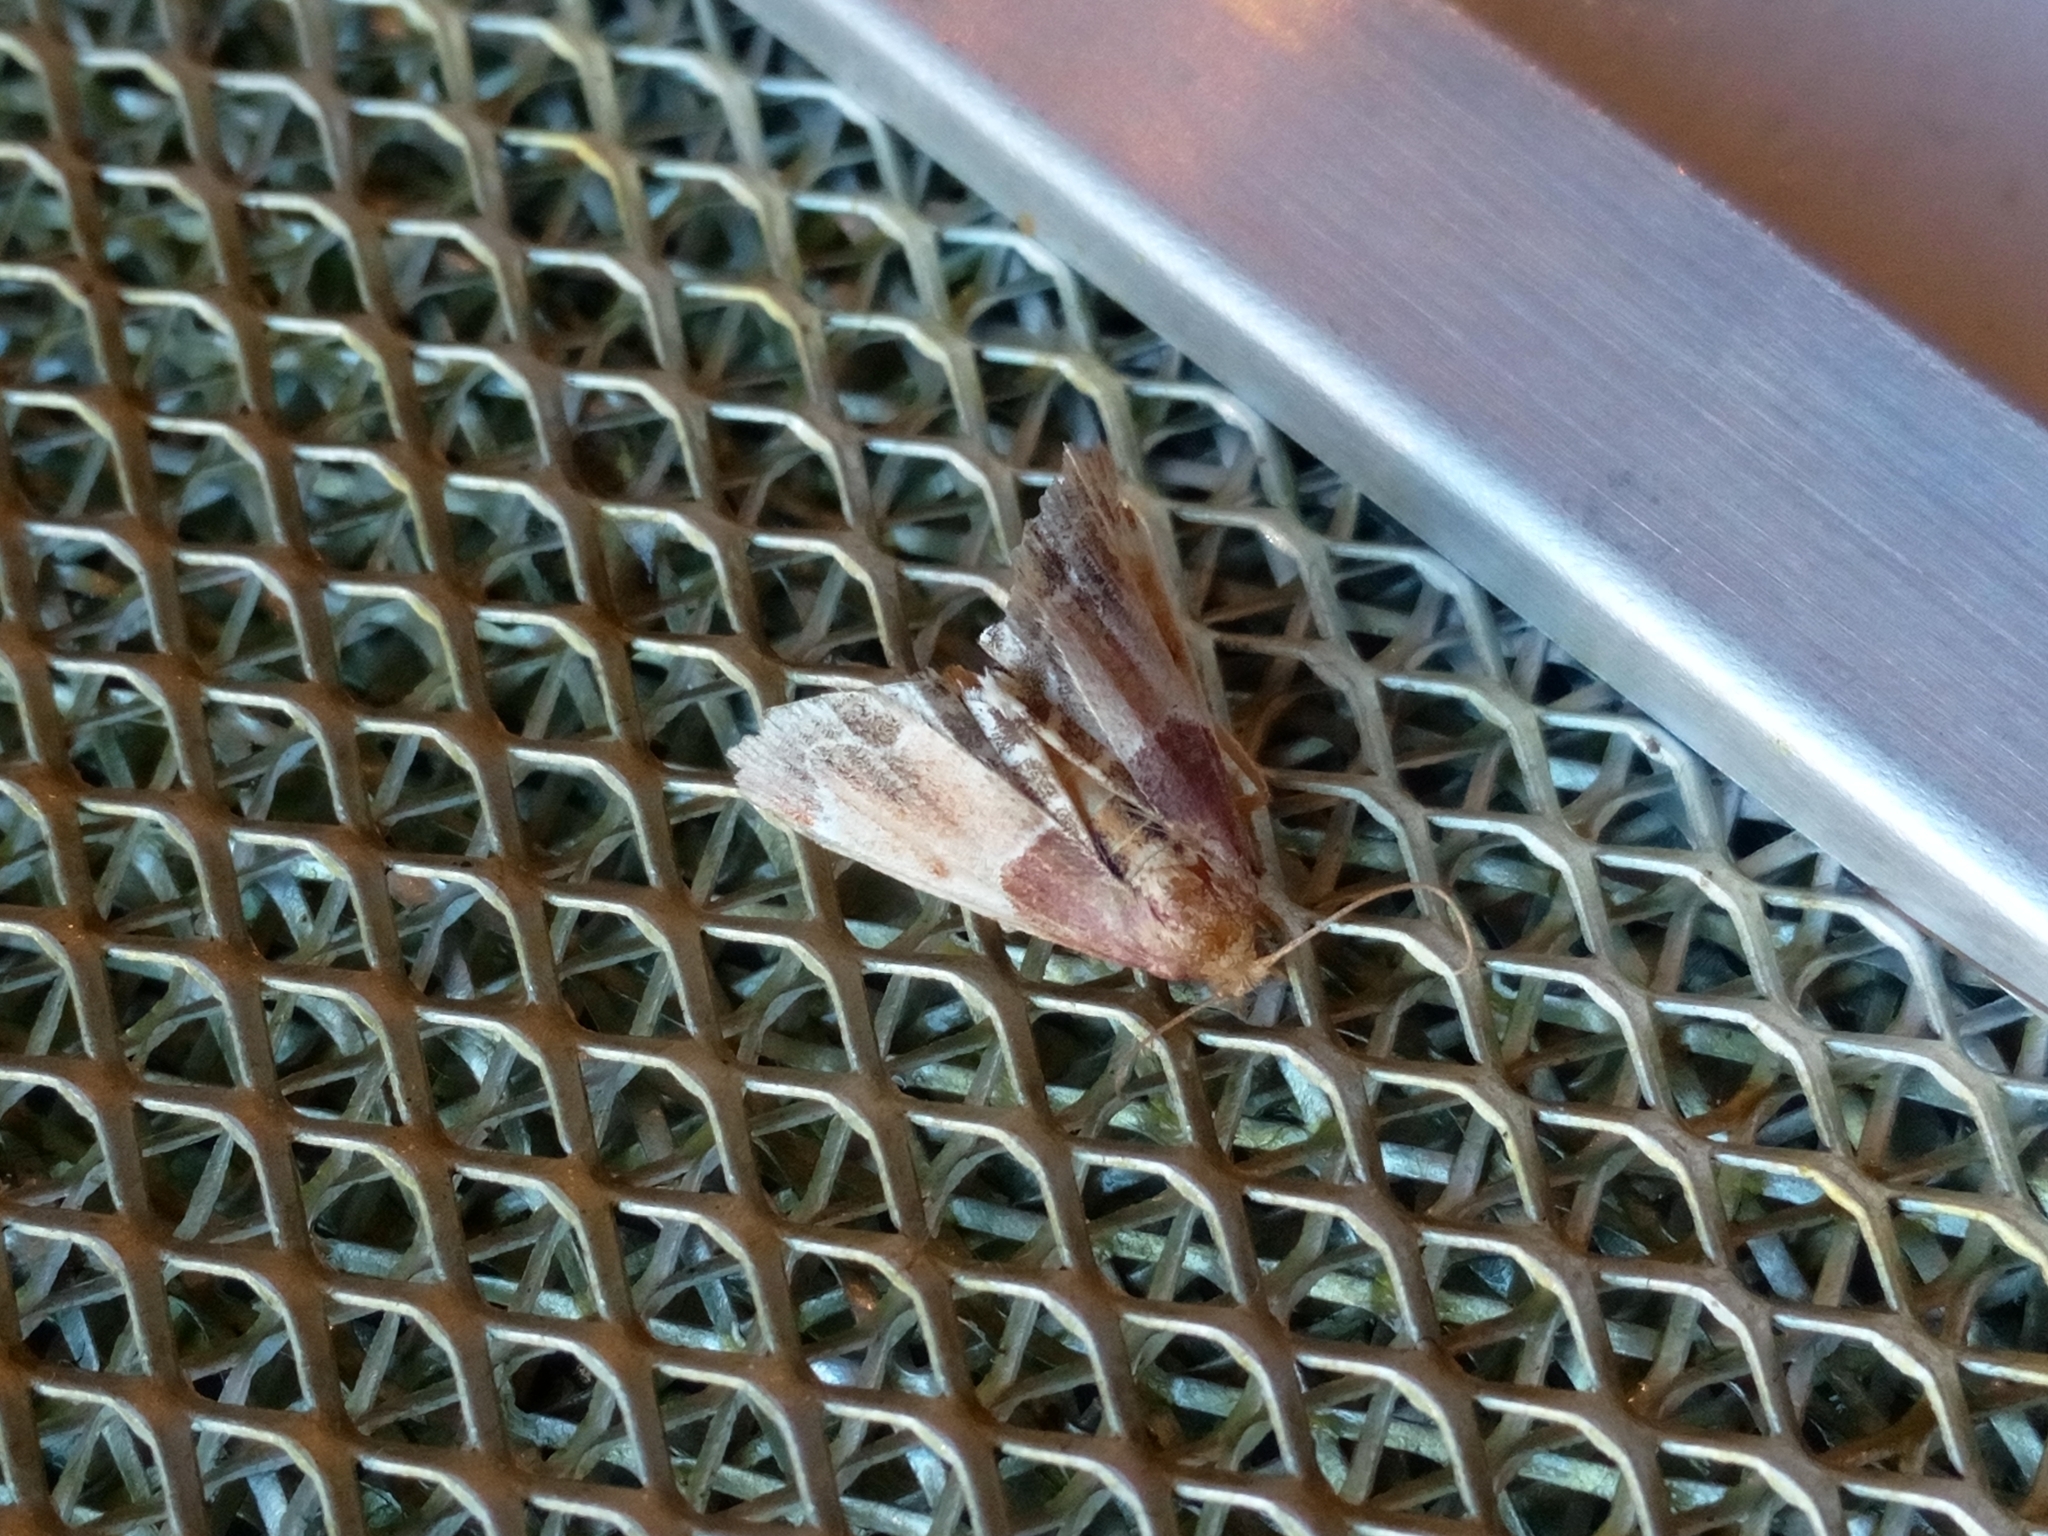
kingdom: Animalia
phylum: Arthropoda
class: Insecta
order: Lepidoptera
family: Pyralidae
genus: Pyralis
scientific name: Pyralis farinalis
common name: Meal moth
